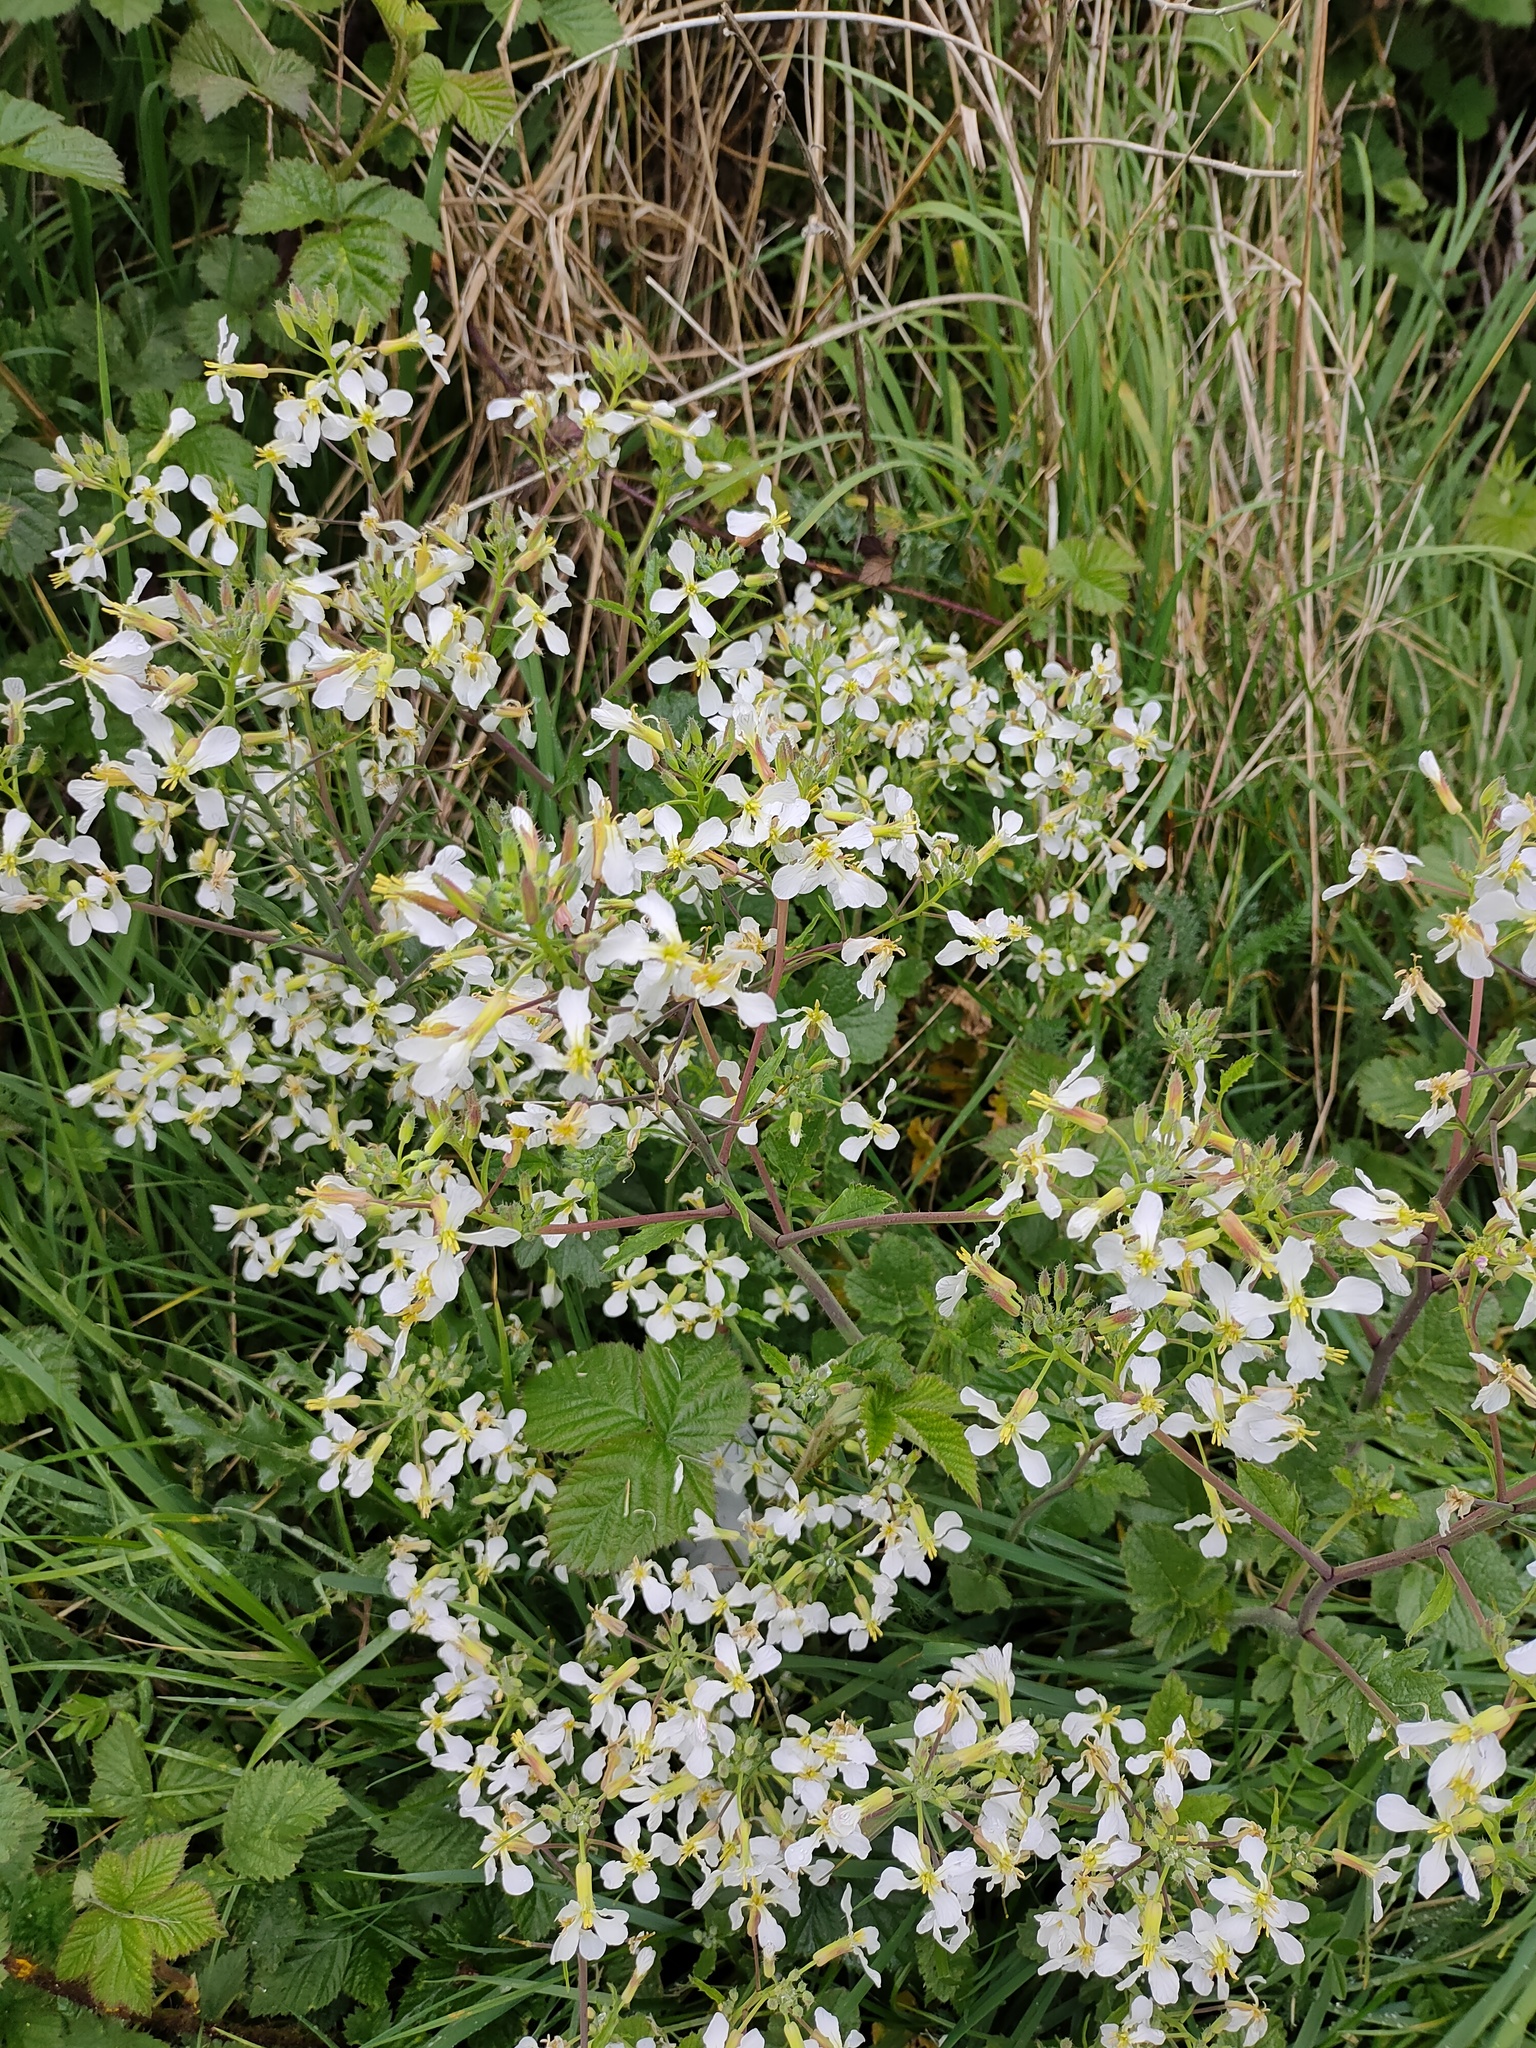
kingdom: Plantae
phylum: Tracheophyta
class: Magnoliopsida
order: Brassicales
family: Brassicaceae
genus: Raphanus
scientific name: Raphanus raphanistrum
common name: Wild radish
